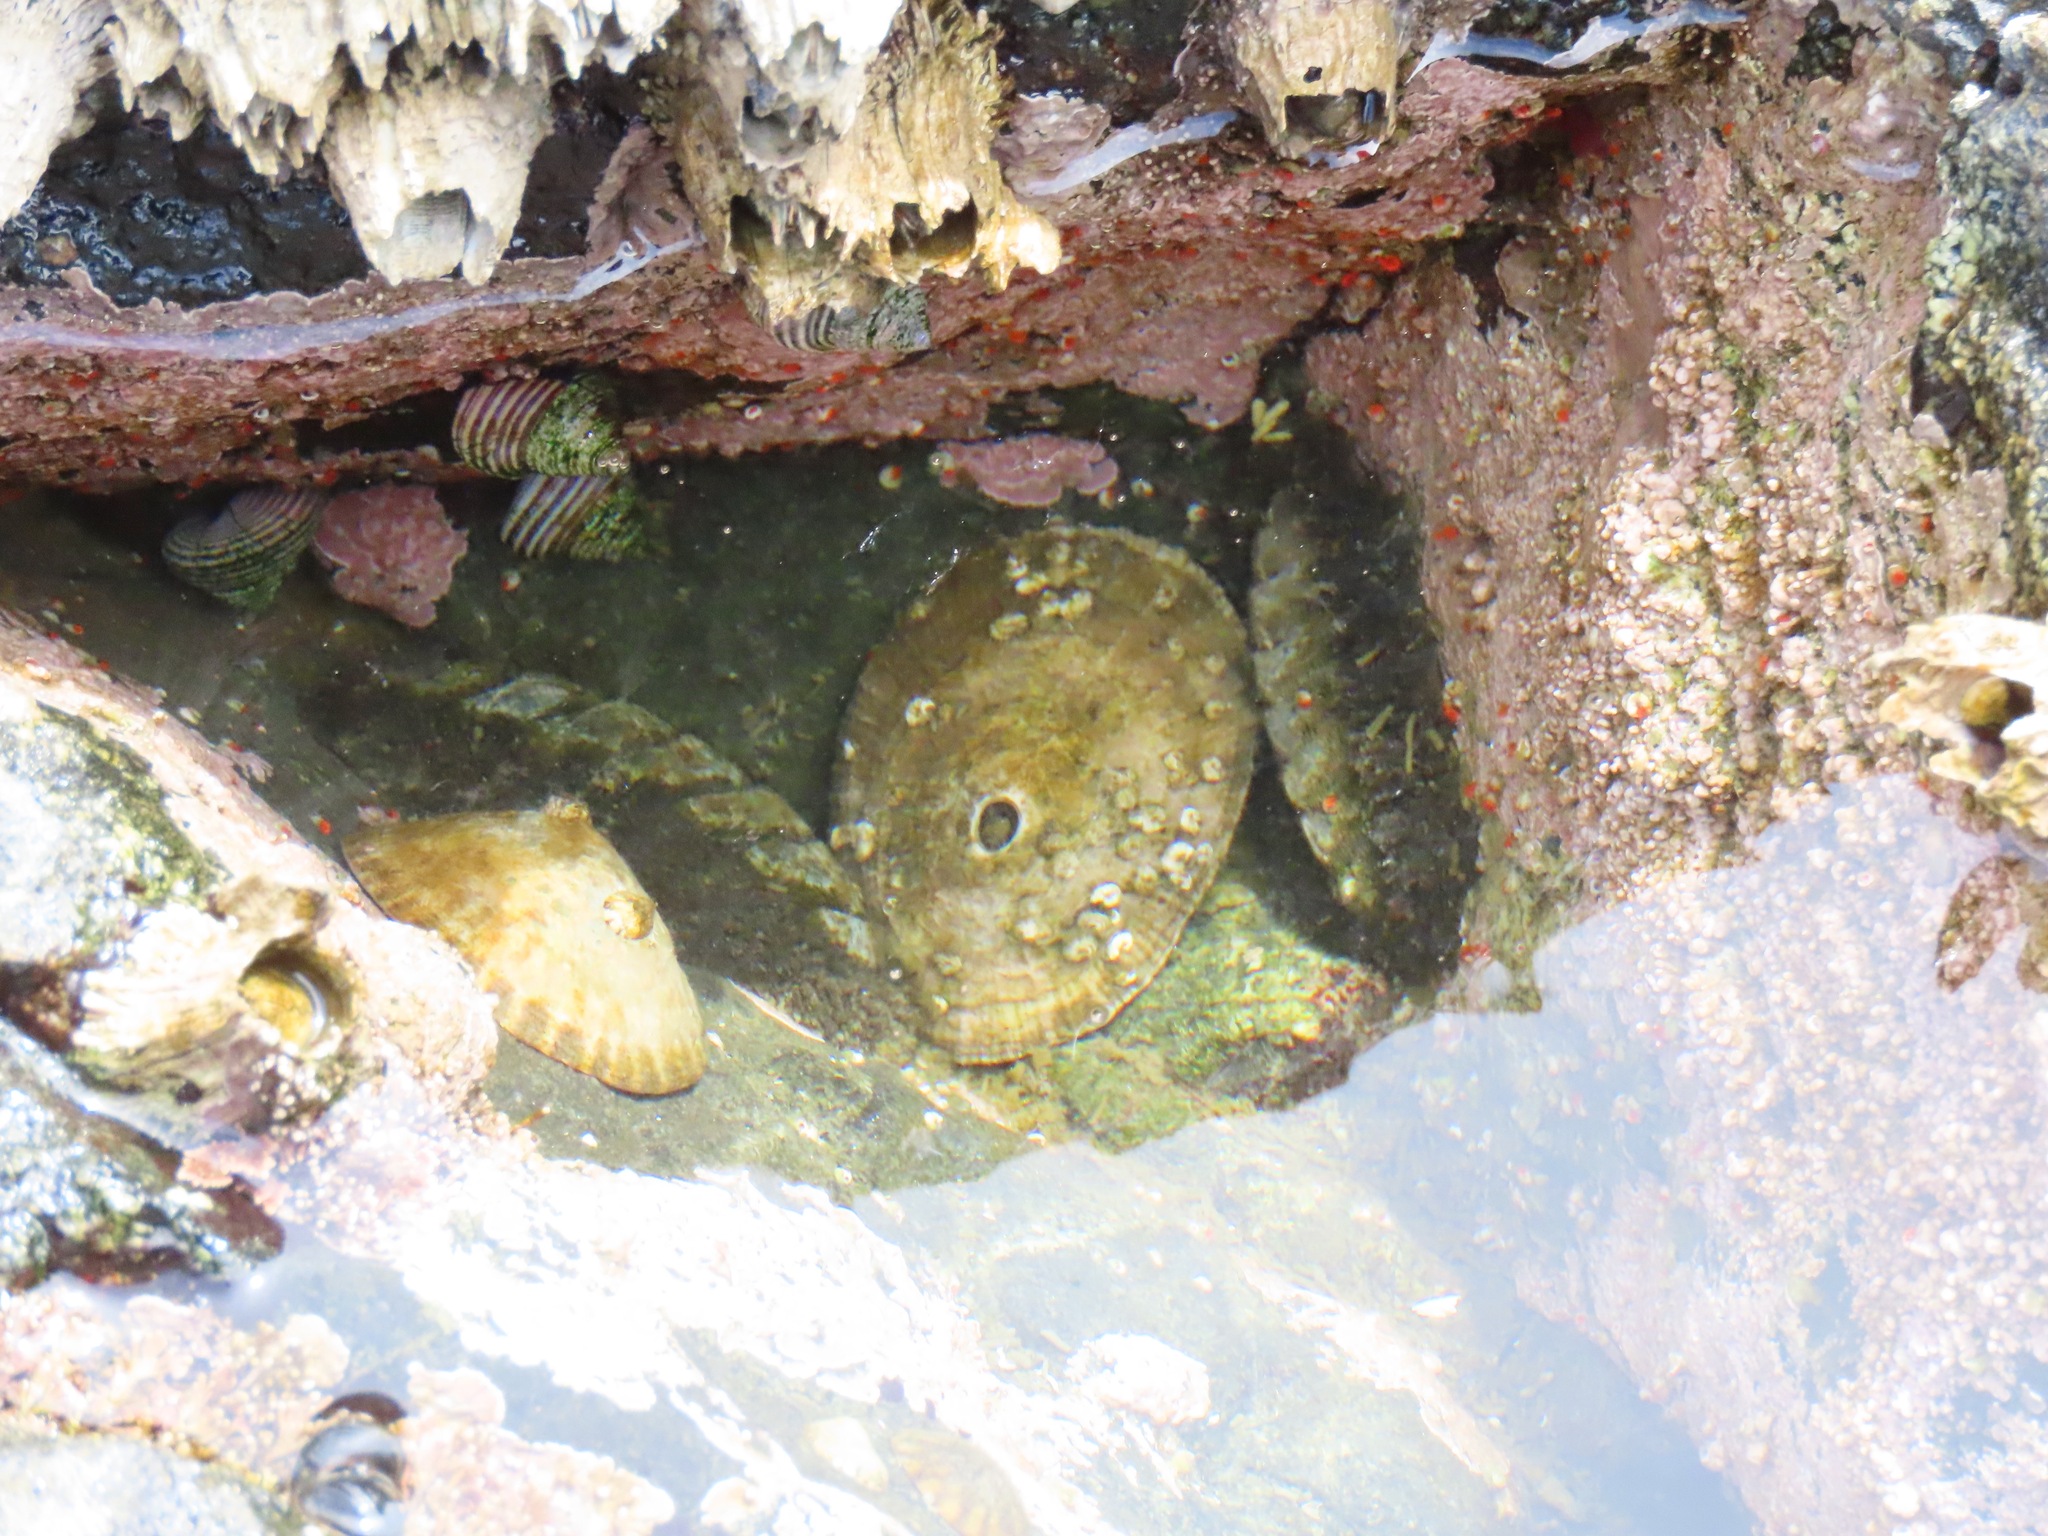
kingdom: Animalia
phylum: Mollusca
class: Gastropoda
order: Lepetellida
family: Fissurellidae
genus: Diodora
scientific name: Diodora aspera
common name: Rough keyhole limpet
